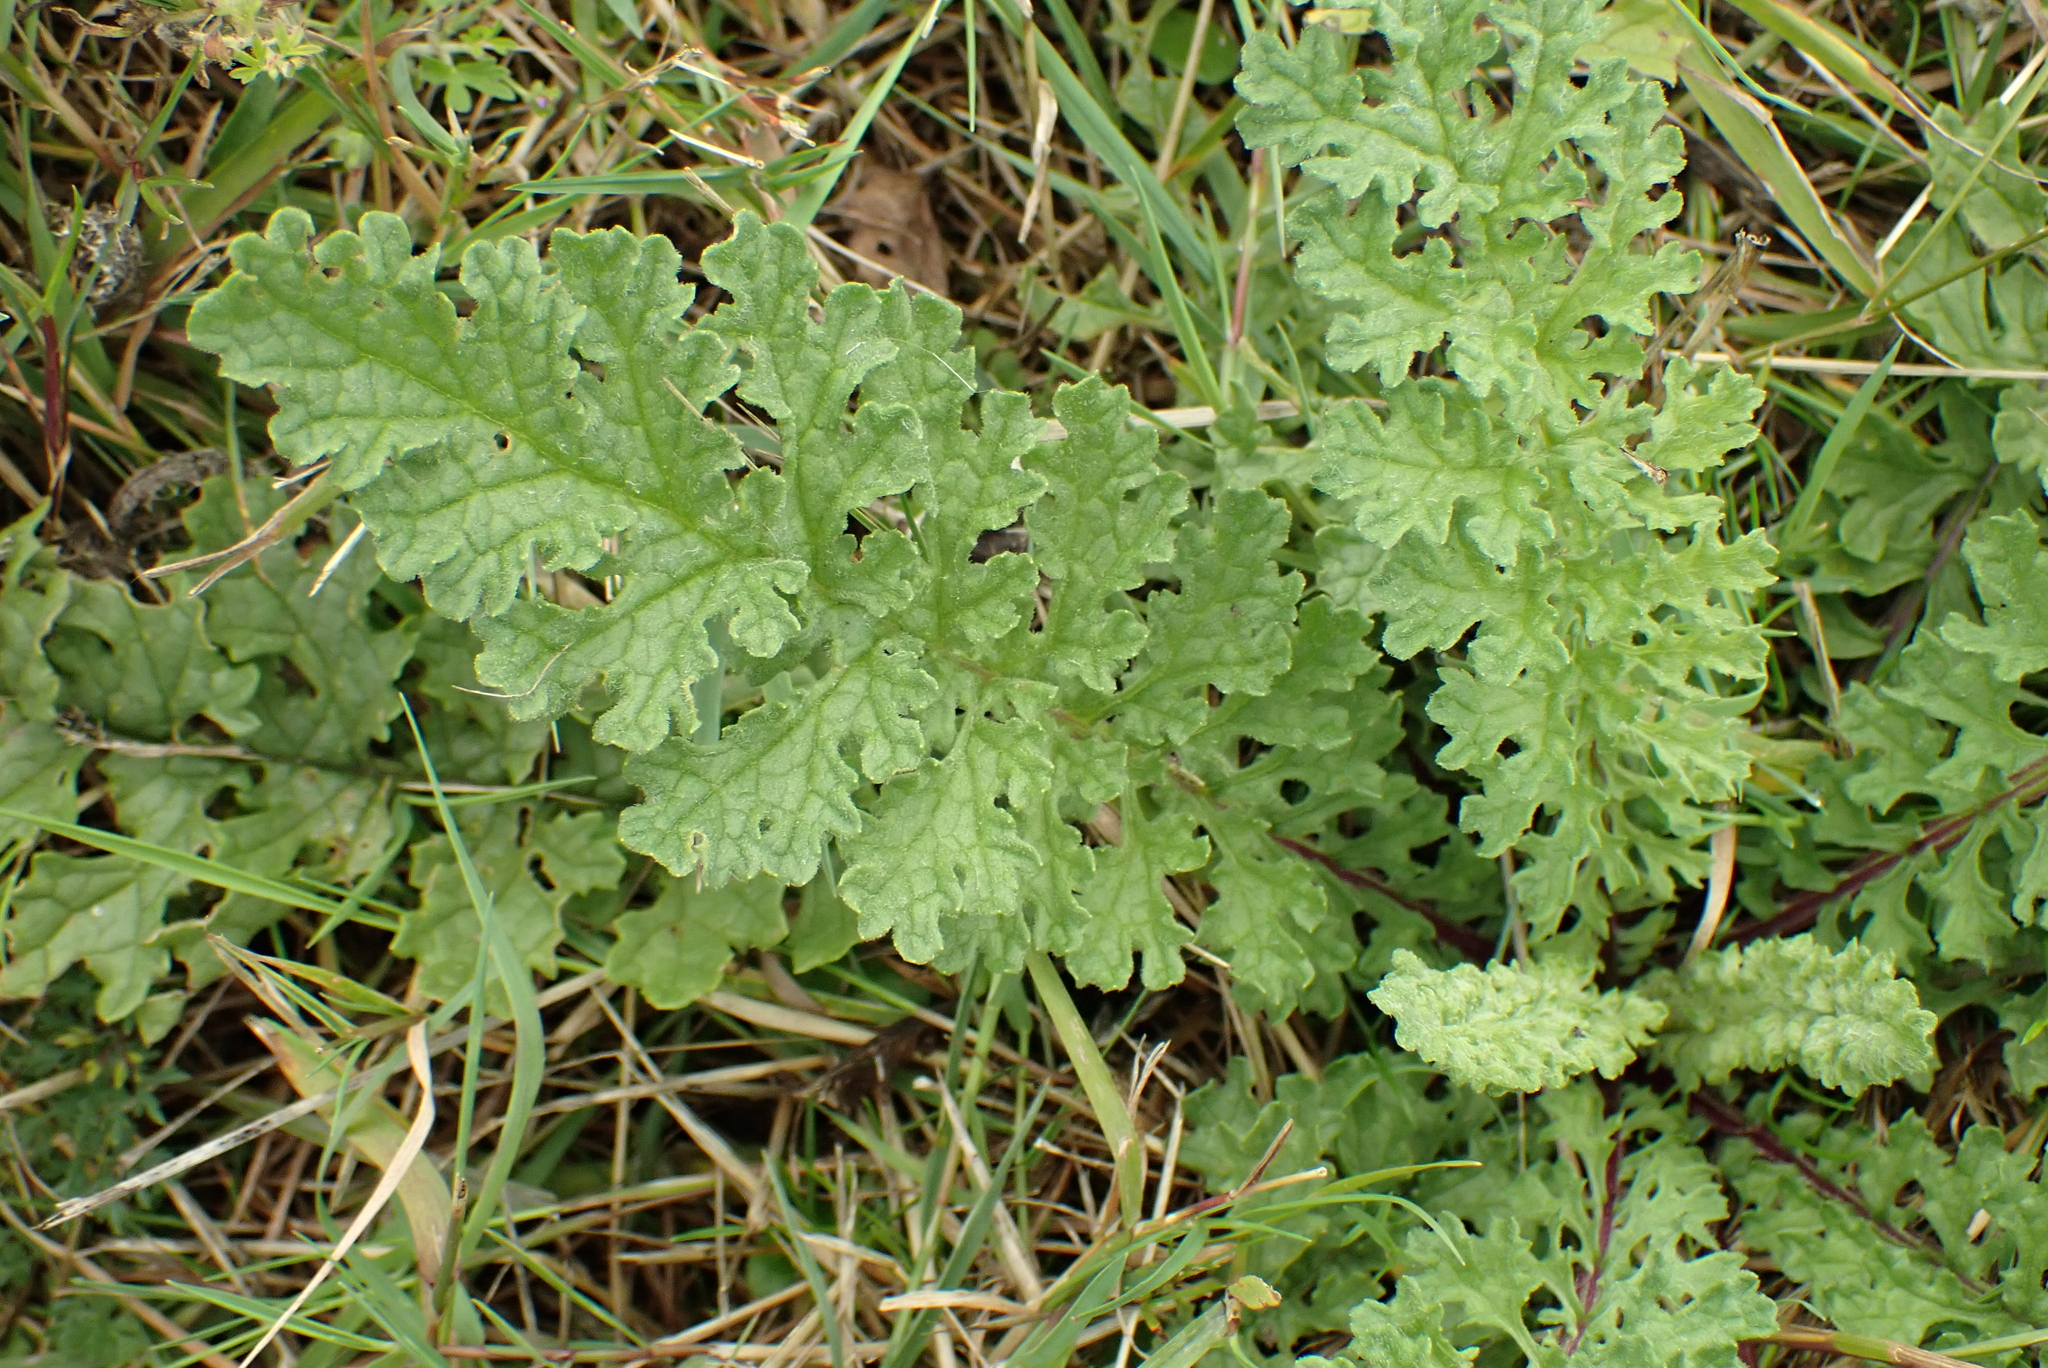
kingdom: Plantae
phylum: Tracheophyta
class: Magnoliopsida
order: Asterales
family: Asteraceae
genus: Jacobaea
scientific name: Jacobaea vulgaris
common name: Stinking willie
